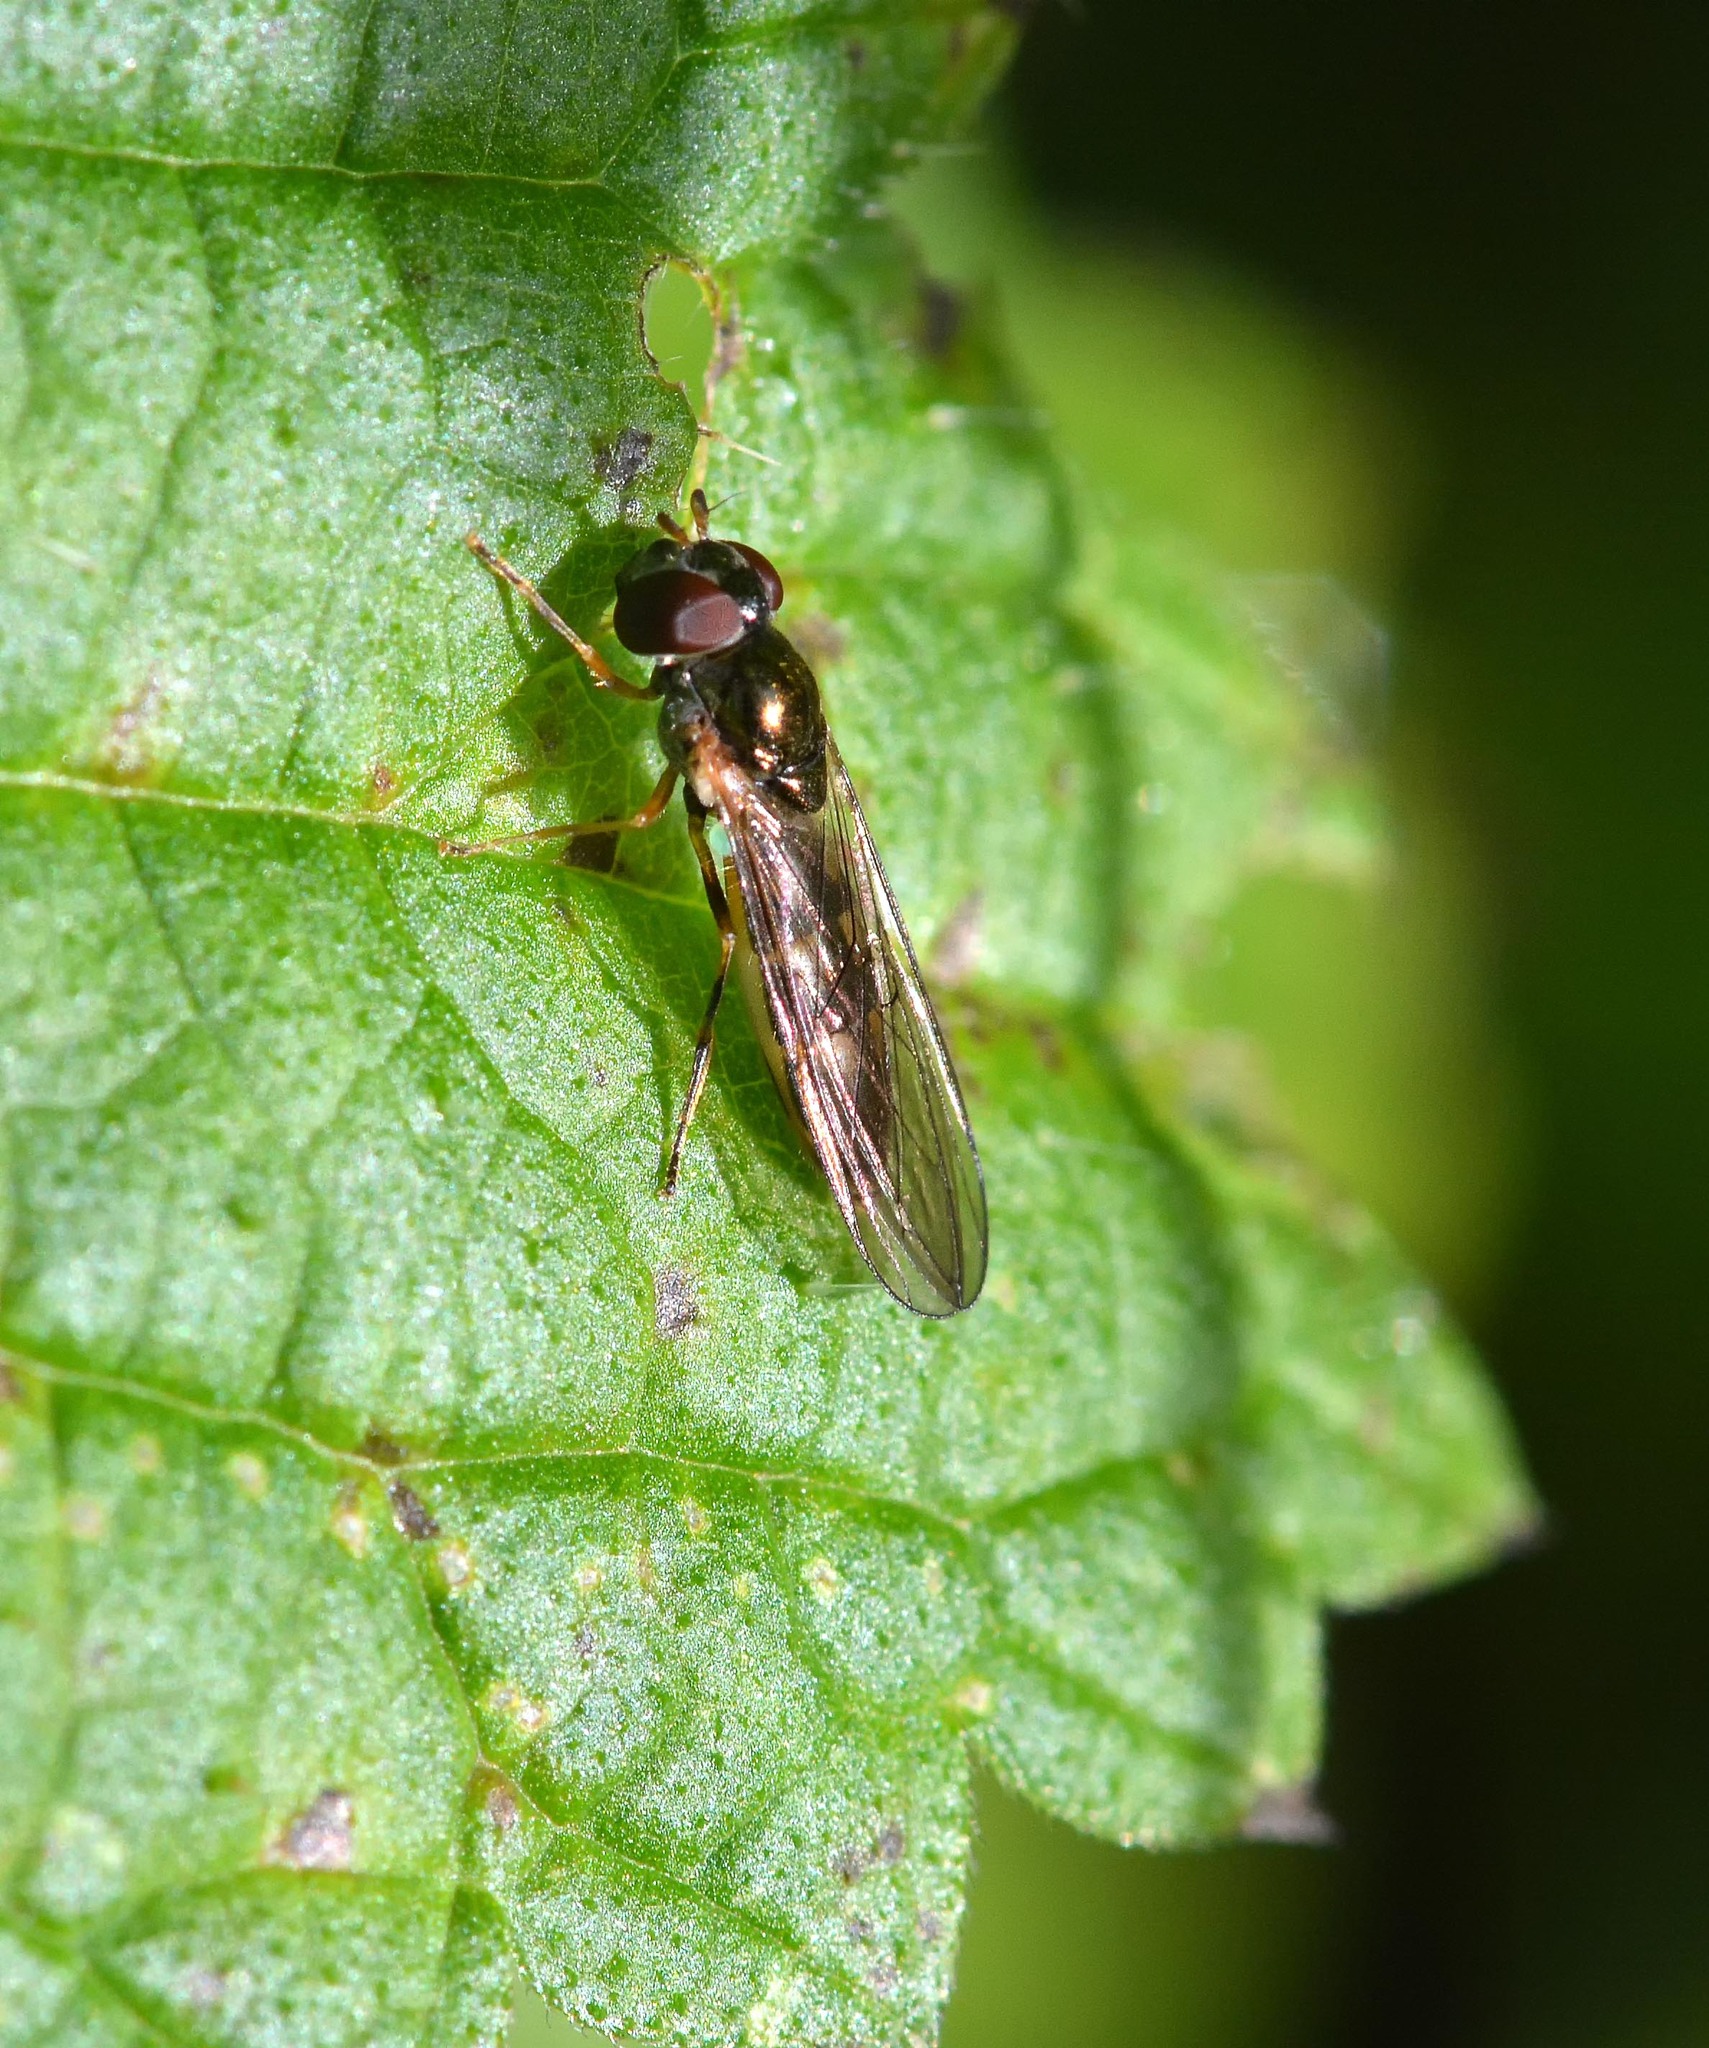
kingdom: Animalia
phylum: Arthropoda
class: Insecta
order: Diptera
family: Syrphidae
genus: Melanostoma
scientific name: Melanostoma scalare
